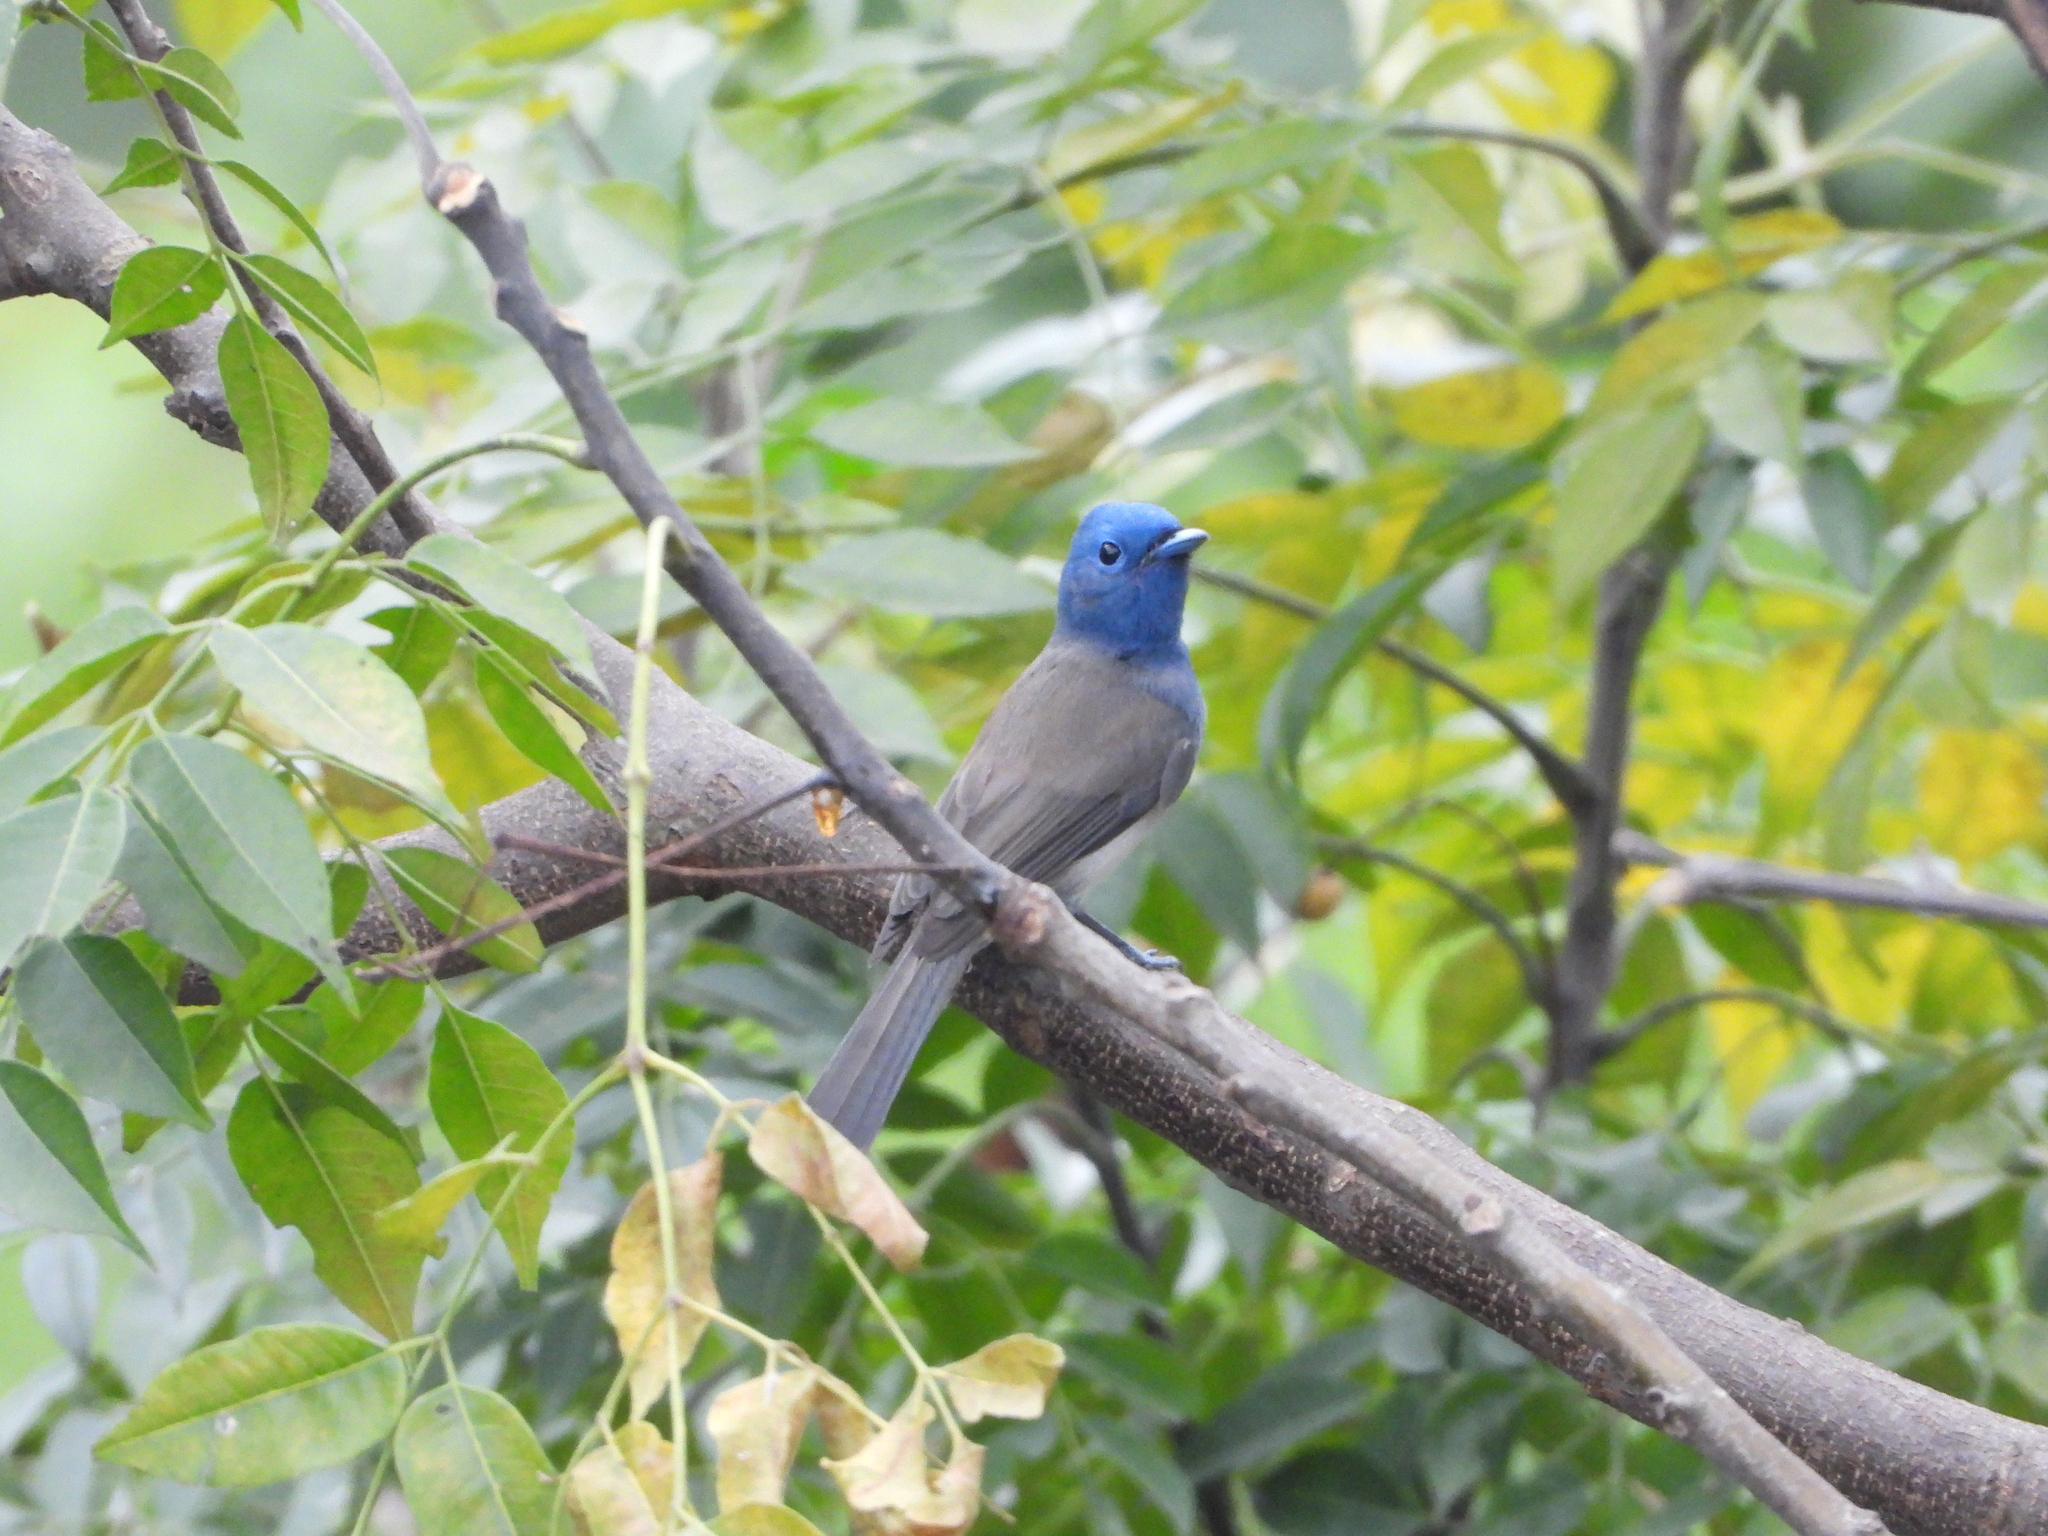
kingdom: Animalia
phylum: Chordata
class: Aves
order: Passeriformes
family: Monarchidae
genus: Hypothymis
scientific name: Hypothymis azurea
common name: Black-naped monarch
